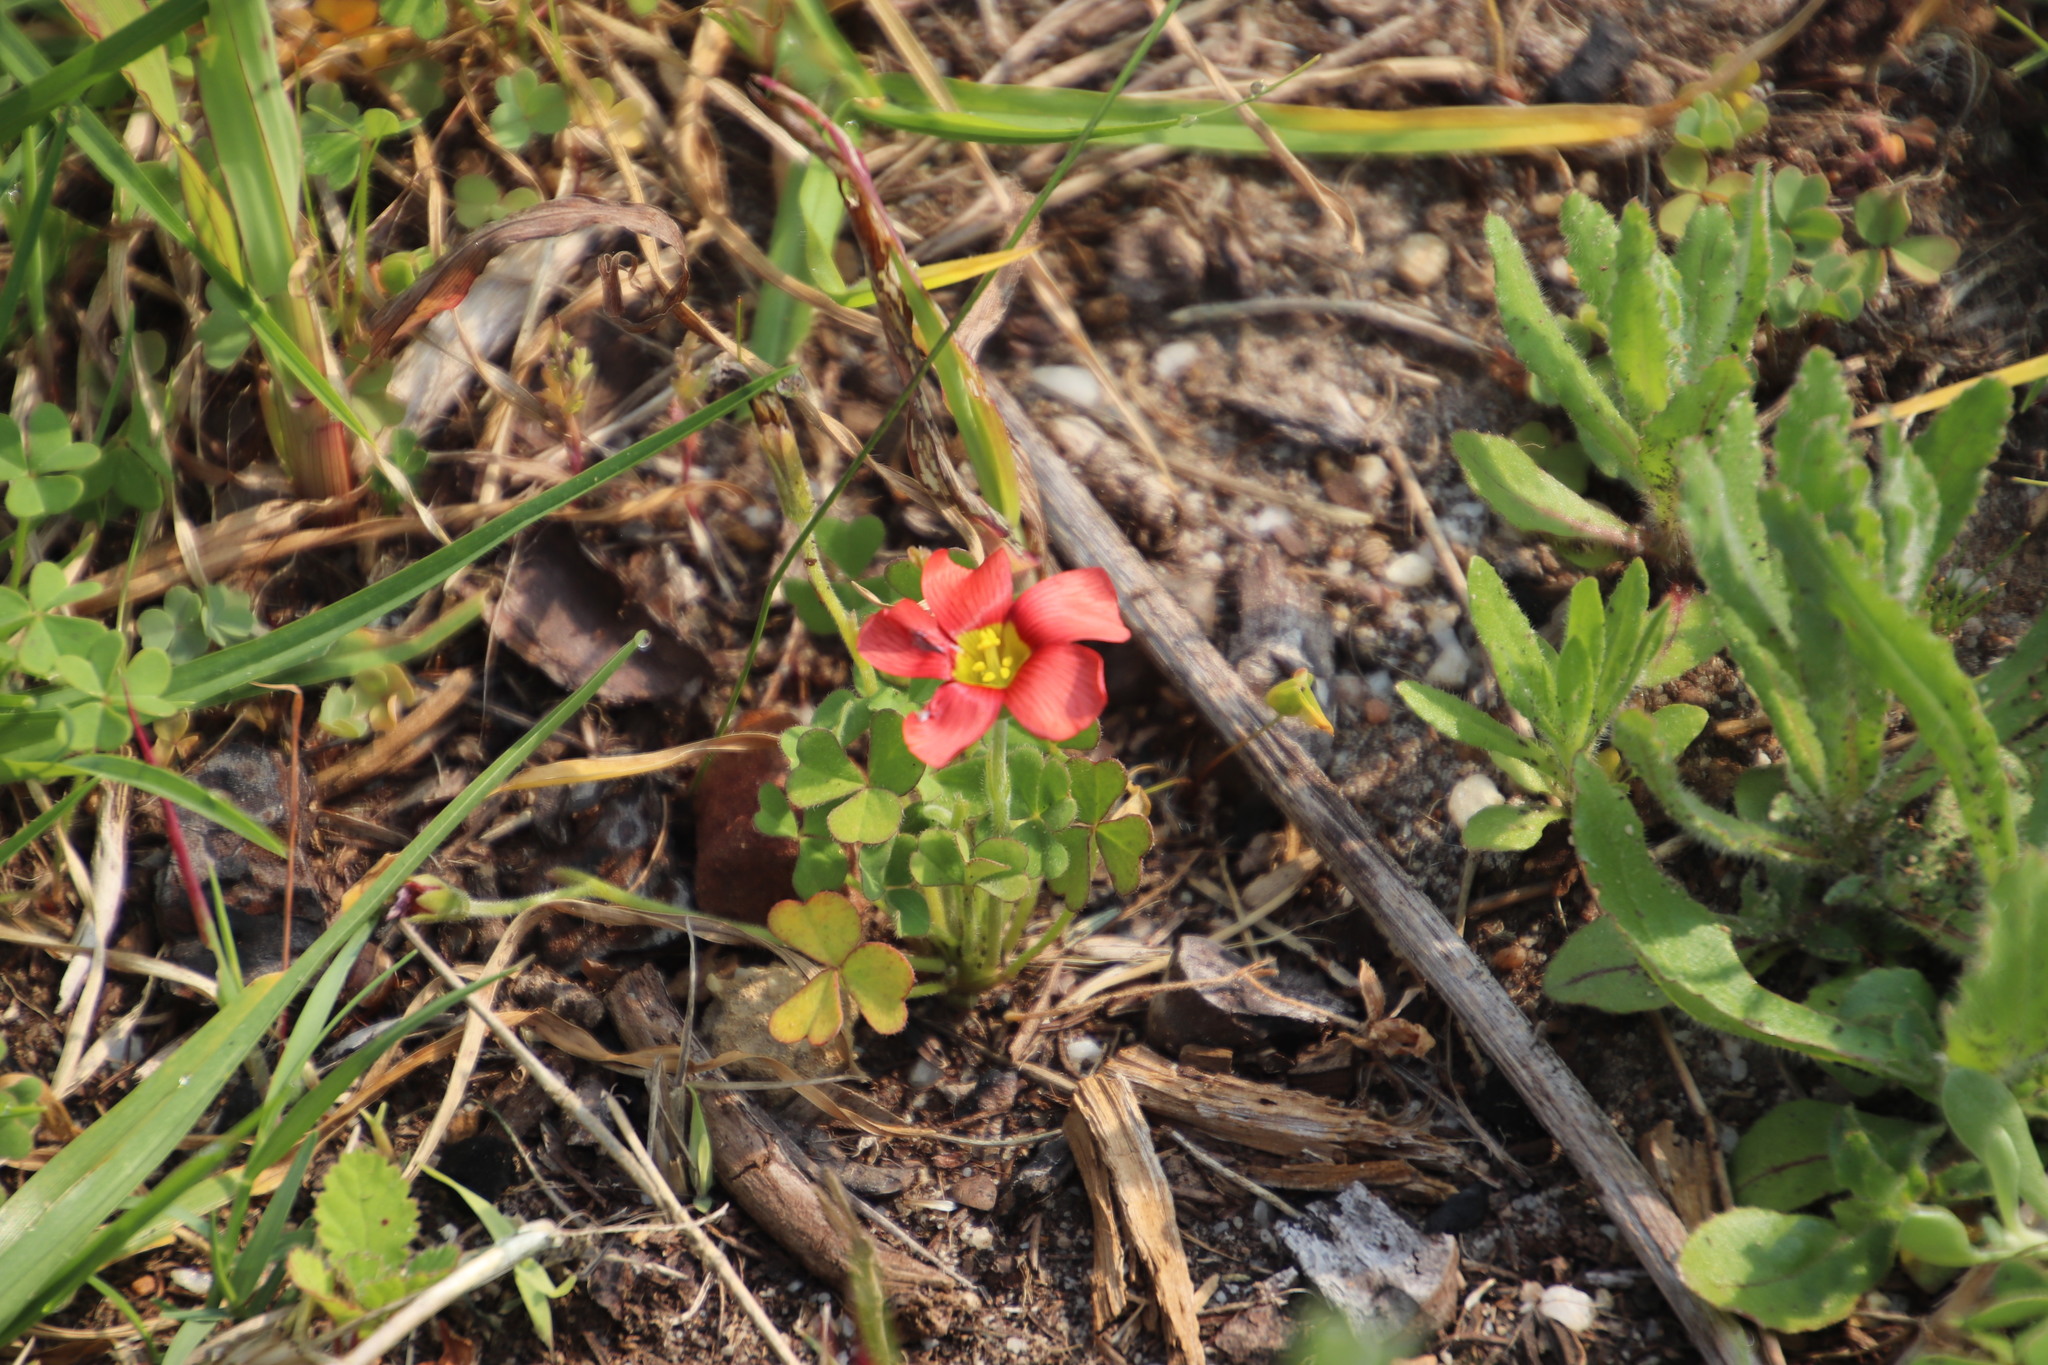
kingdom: Plantae
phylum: Tracheophyta
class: Magnoliopsida
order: Oxalidales
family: Oxalidaceae
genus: Oxalis
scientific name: Oxalis obtusa
